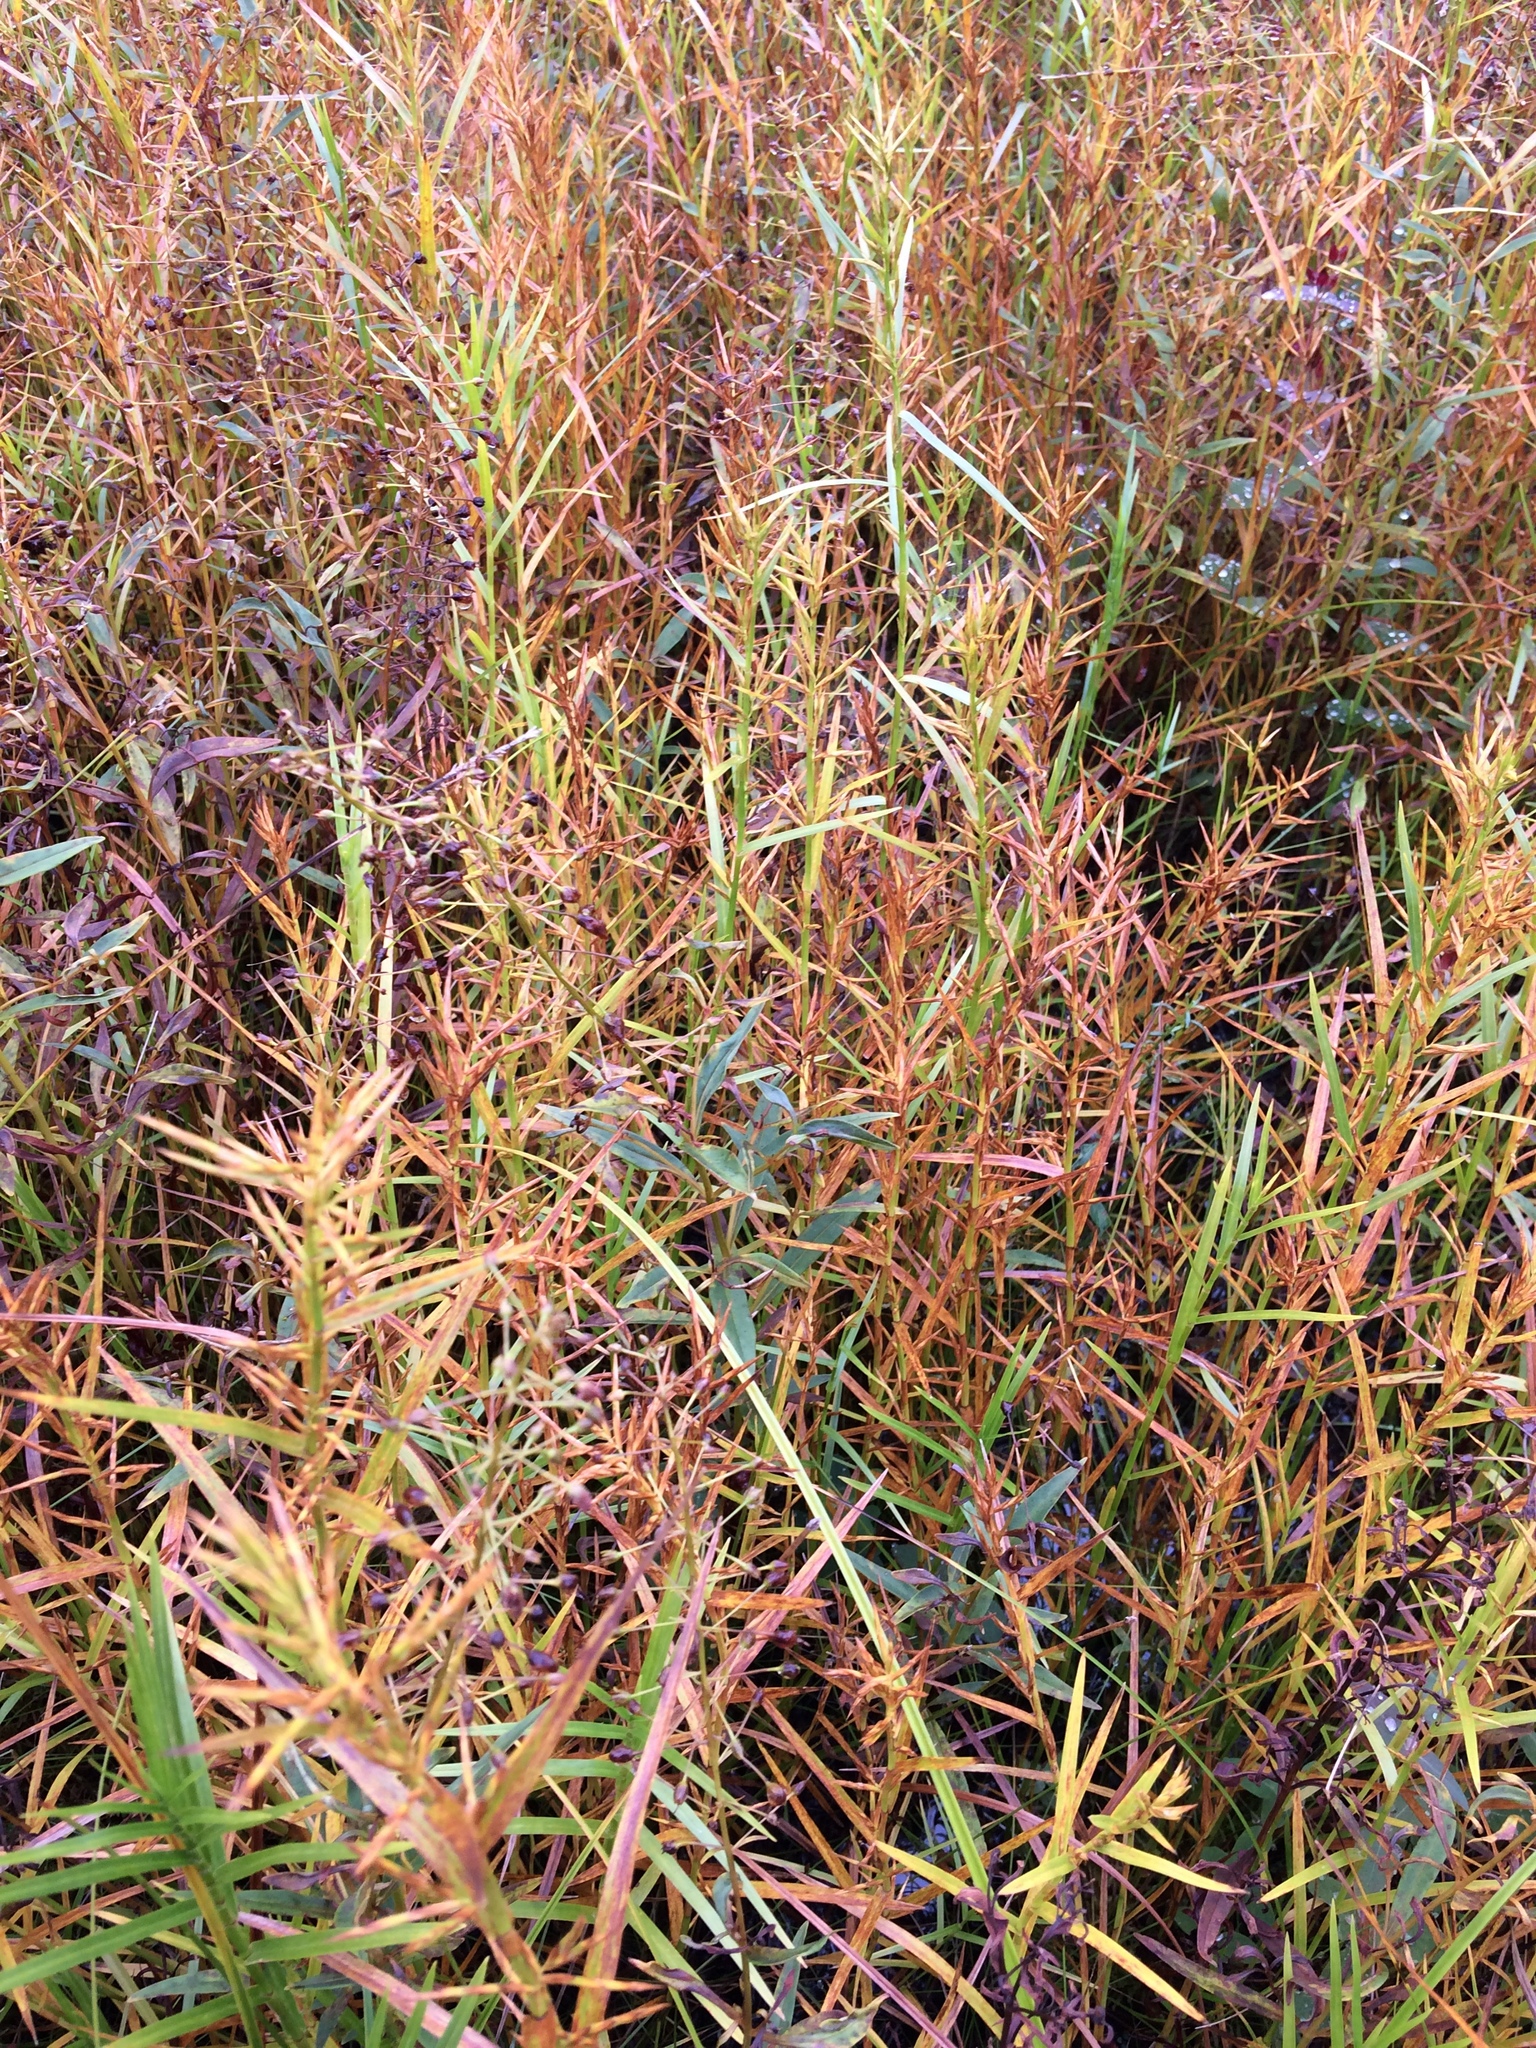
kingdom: Plantae
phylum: Tracheophyta
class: Liliopsida
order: Poales
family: Cyperaceae
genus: Dulichium
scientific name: Dulichium arundinaceum
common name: Three-way sedge
